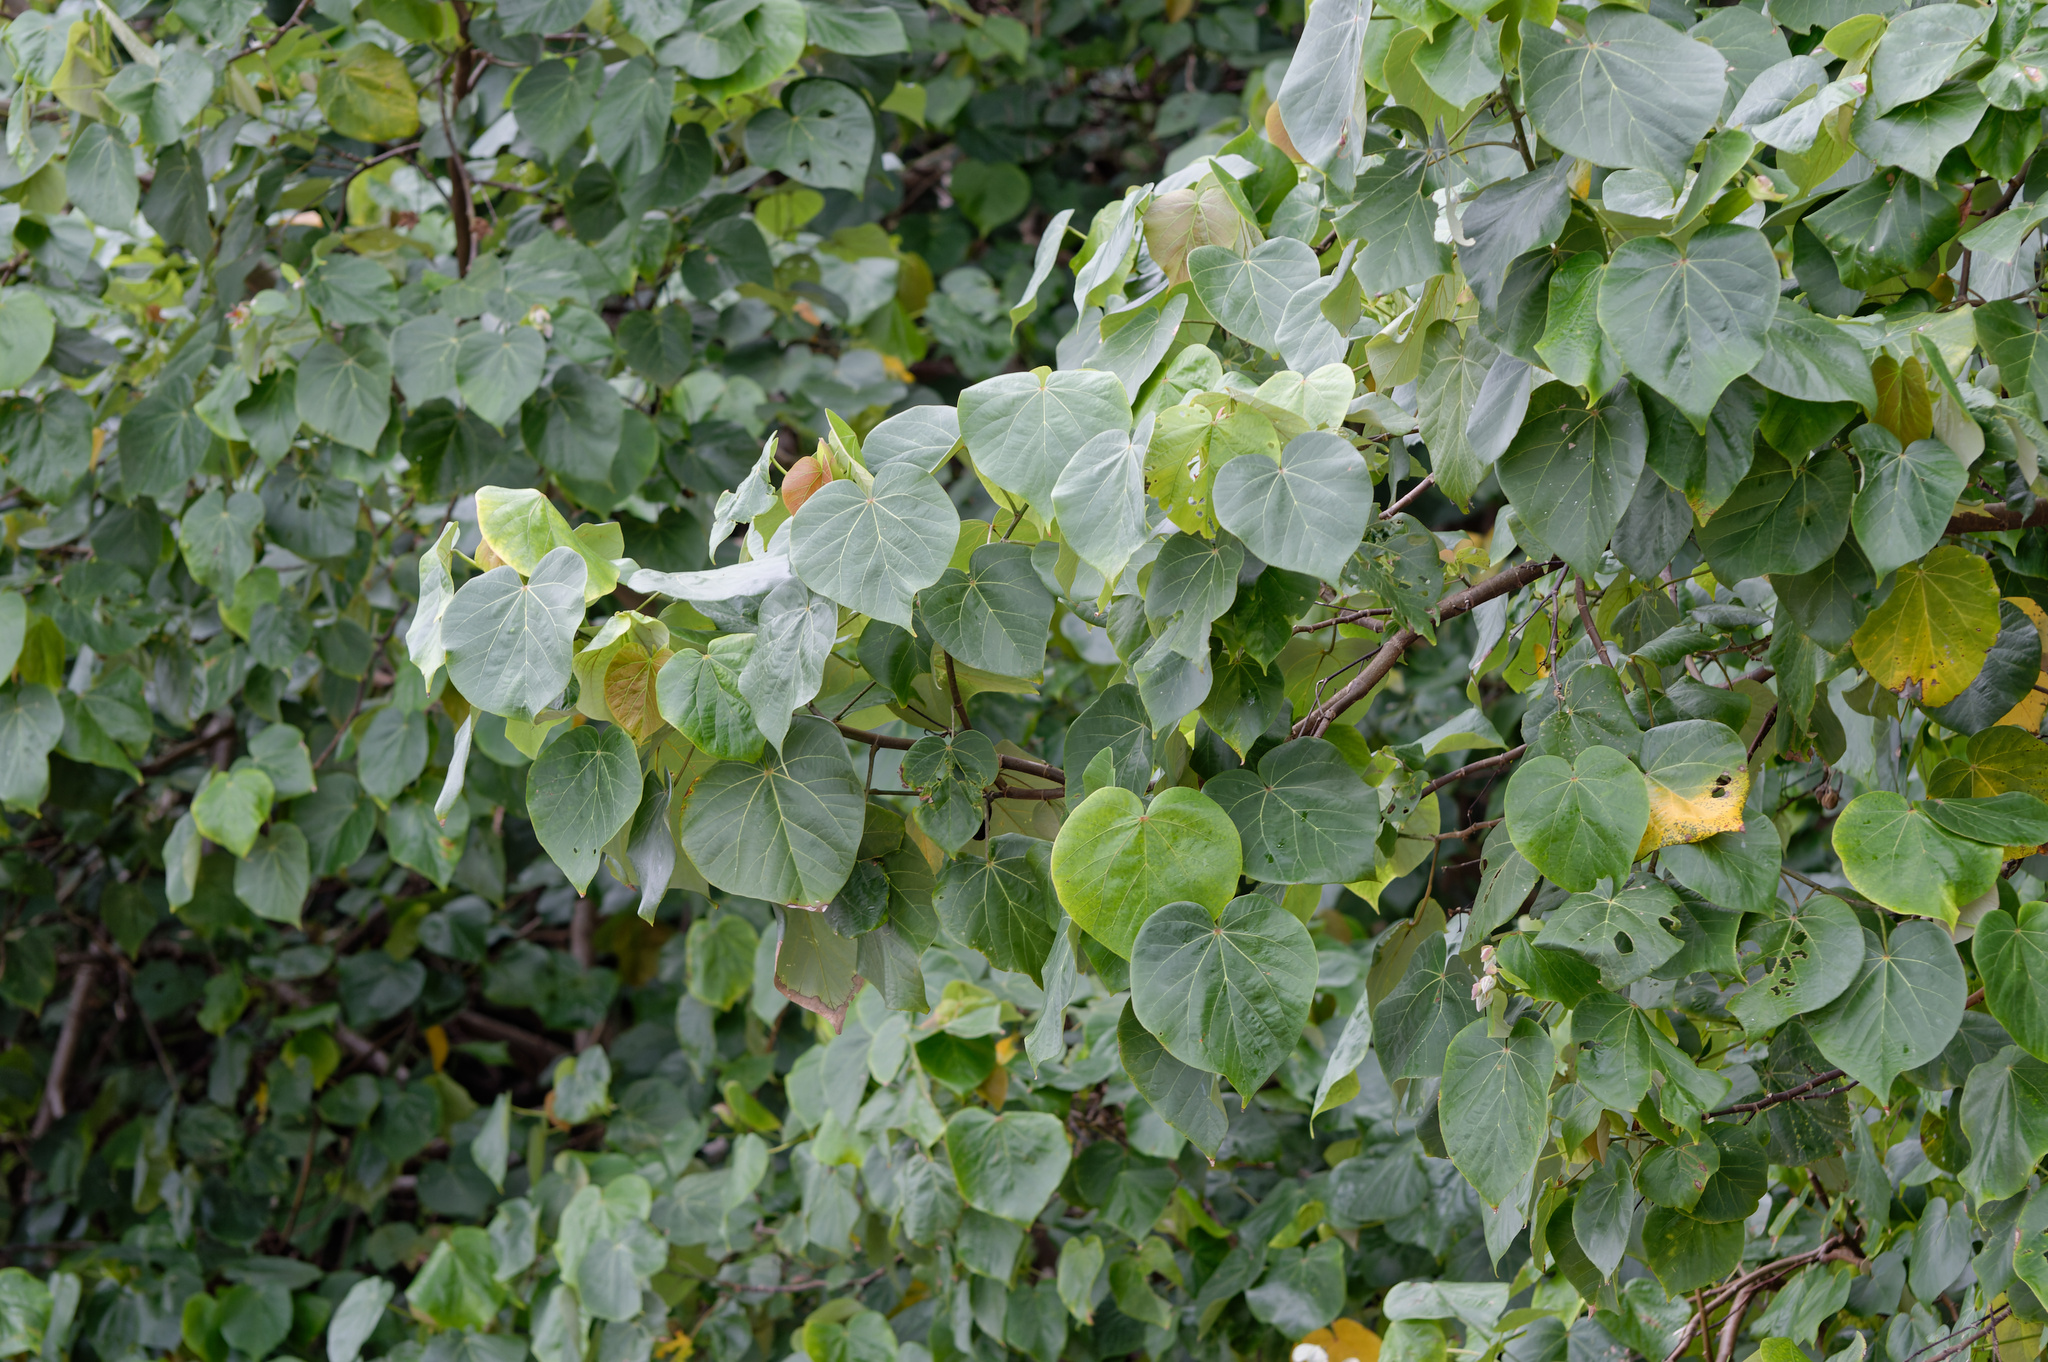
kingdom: Plantae
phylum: Tracheophyta
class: Magnoliopsida
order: Malvales
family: Malvaceae
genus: Talipariti
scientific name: Talipariti tiliaceum
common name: Sea hibiscus
